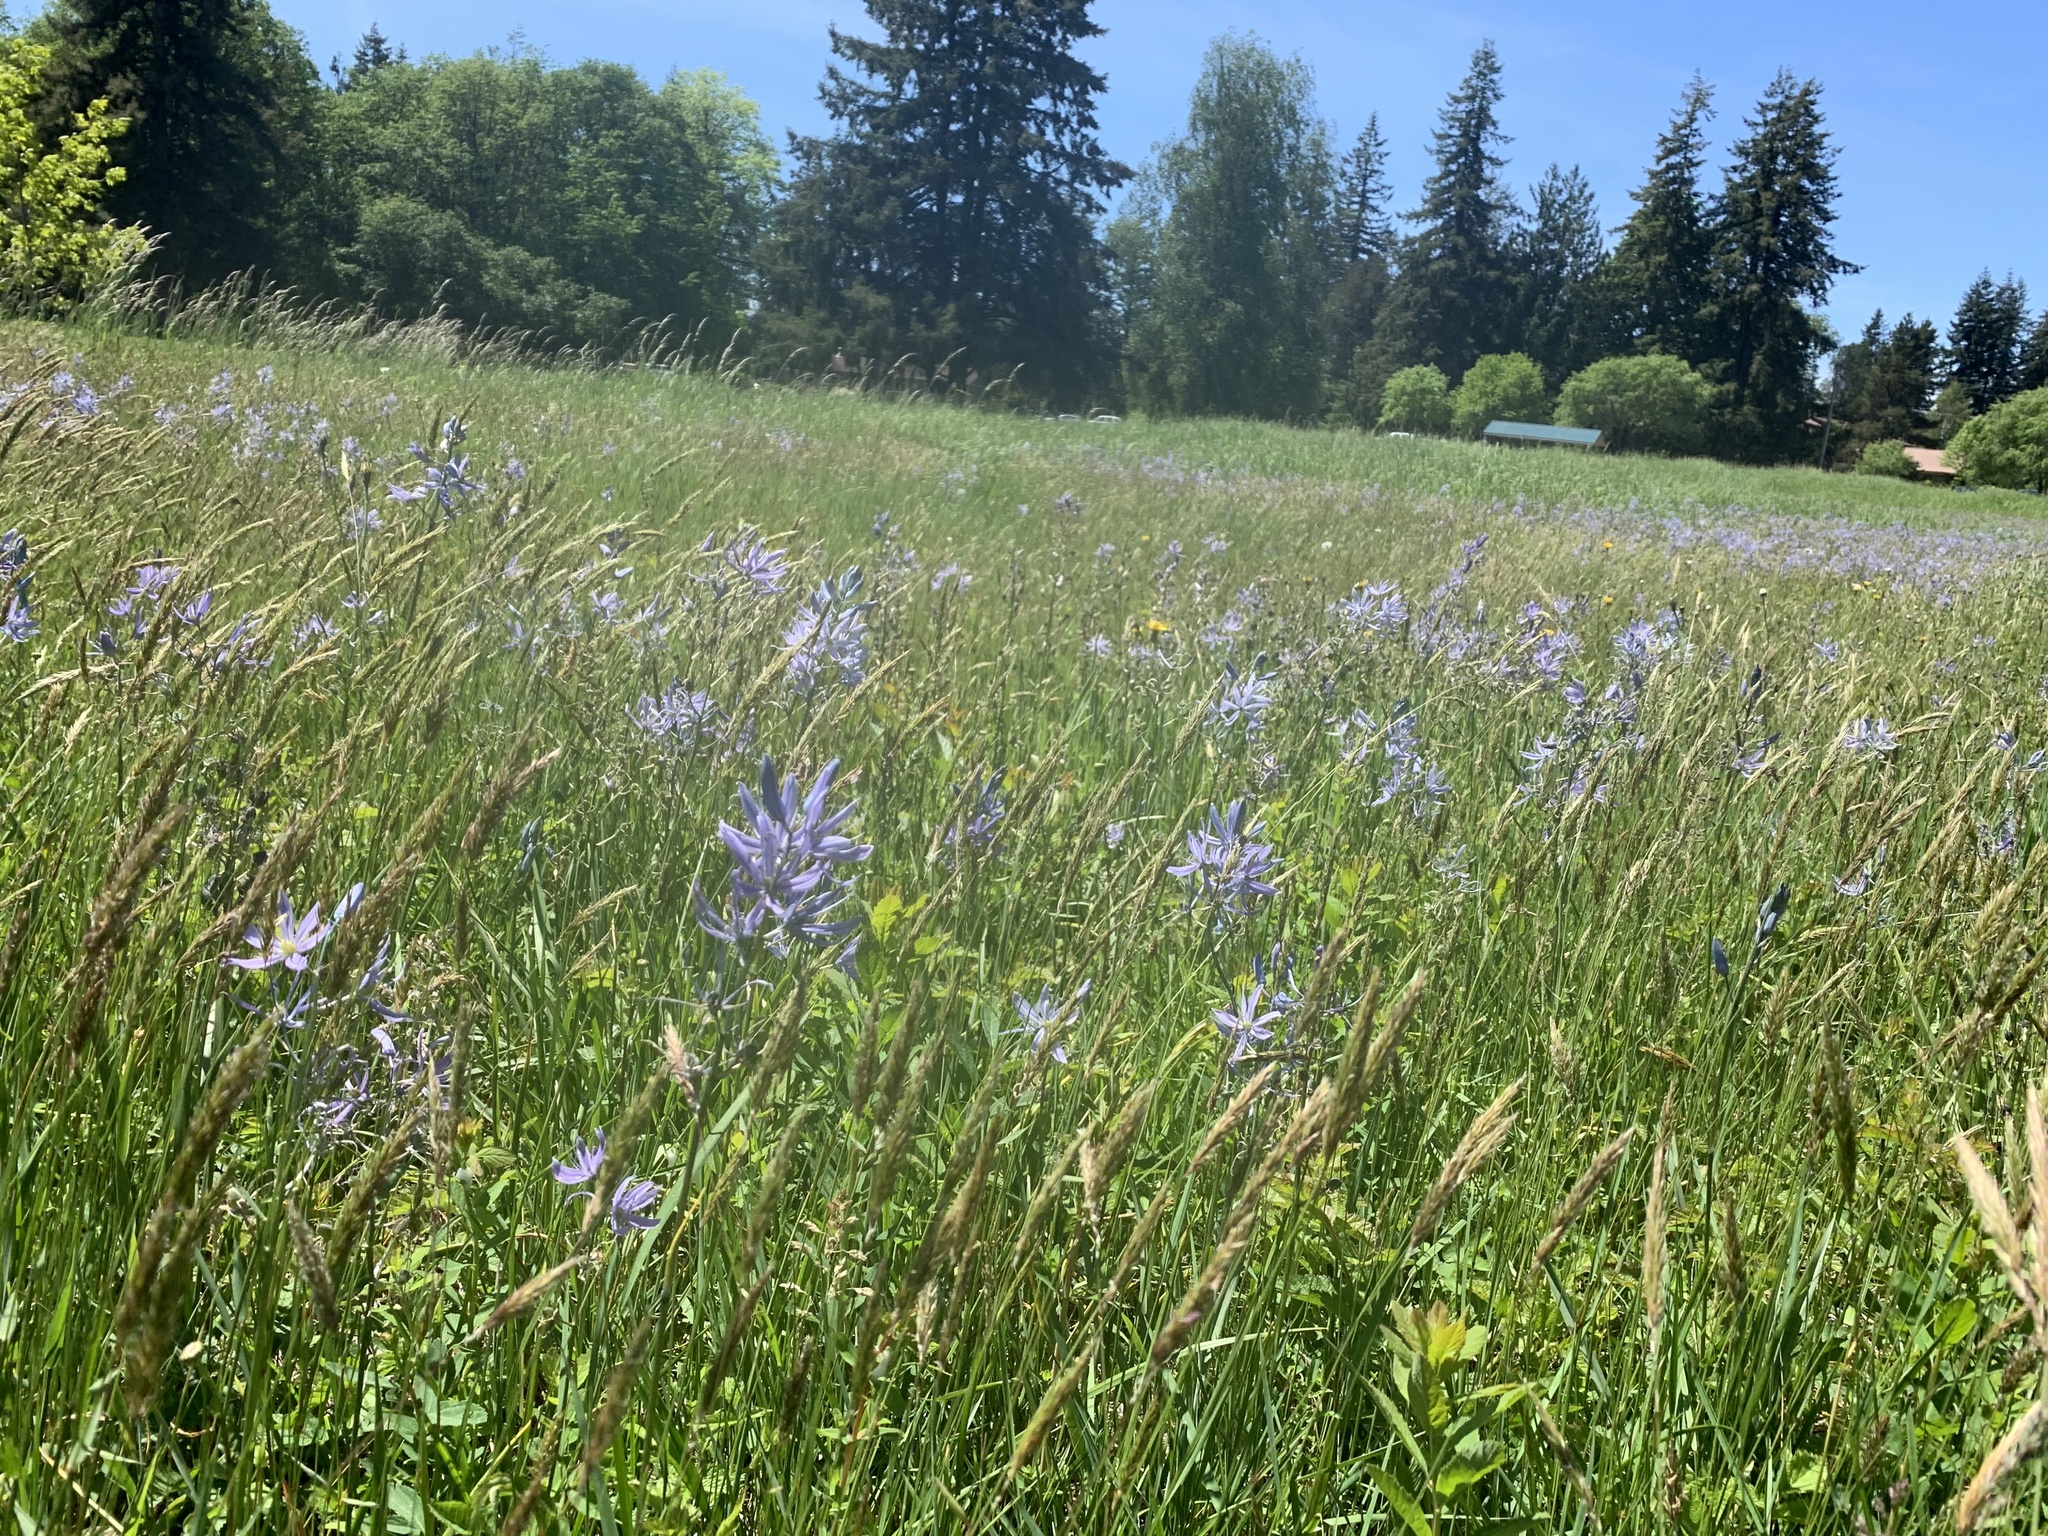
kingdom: Plantae
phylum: Tracheophyta
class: Liliopsida
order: Asparagales
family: Asparagaceae
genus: Camassia
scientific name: Camassia quamash
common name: Common camas
